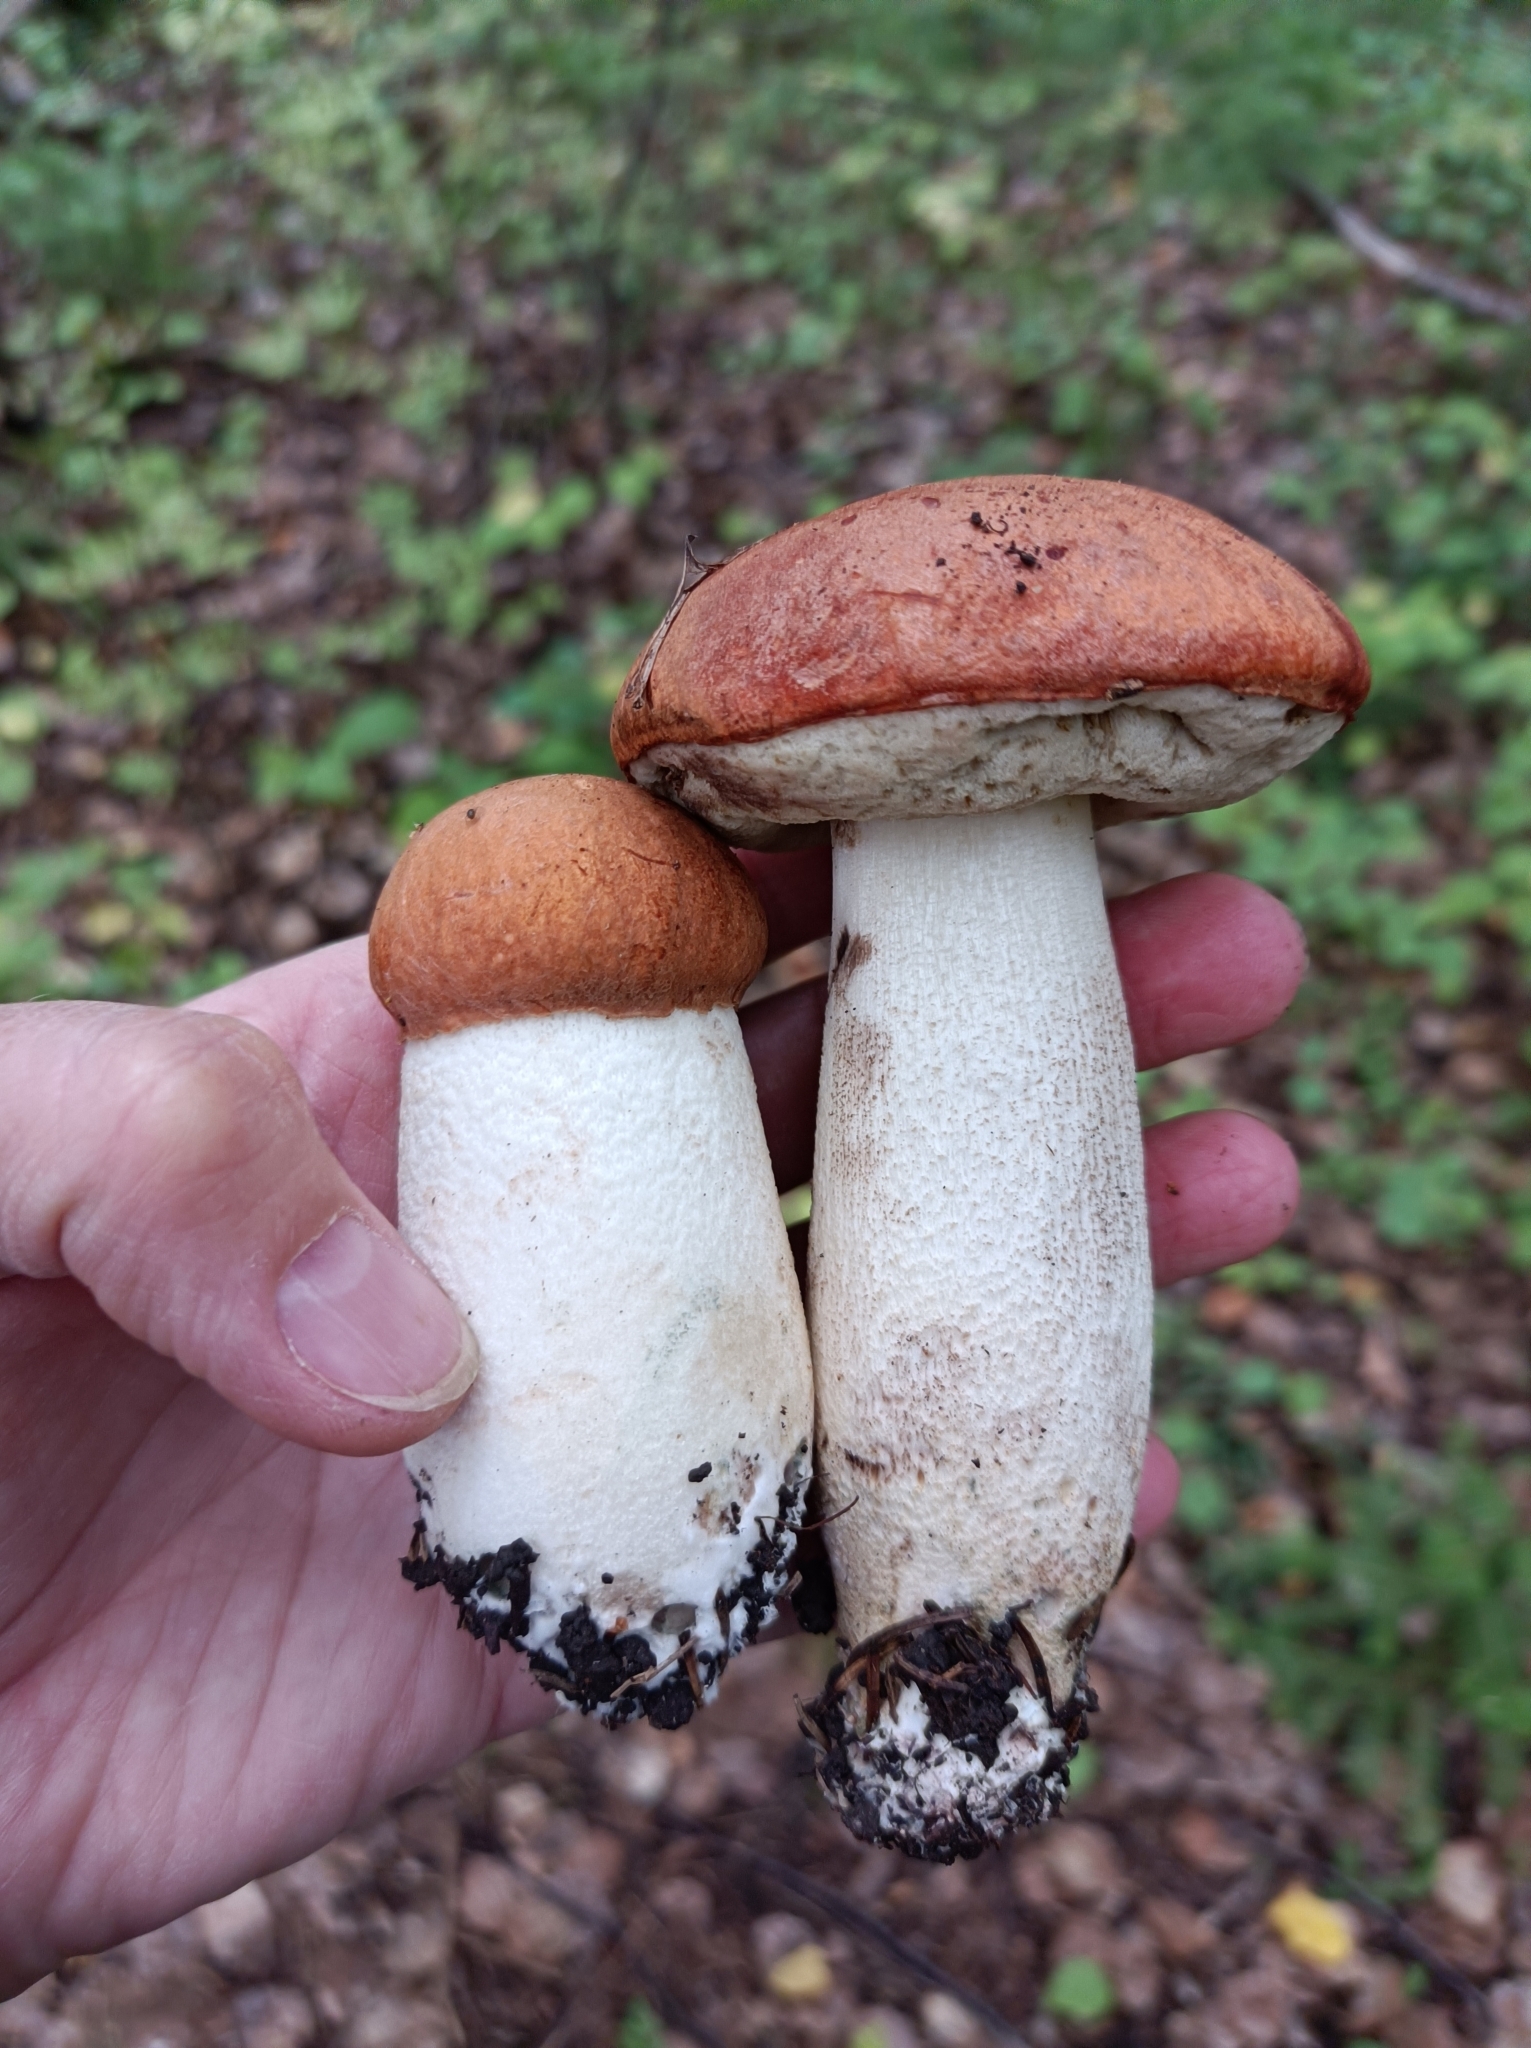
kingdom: Fungi
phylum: Basidiomycota
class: Agaricomycetes
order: Boletales
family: Boletaceae
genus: Leccinum
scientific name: Leccinum albostipitatum
